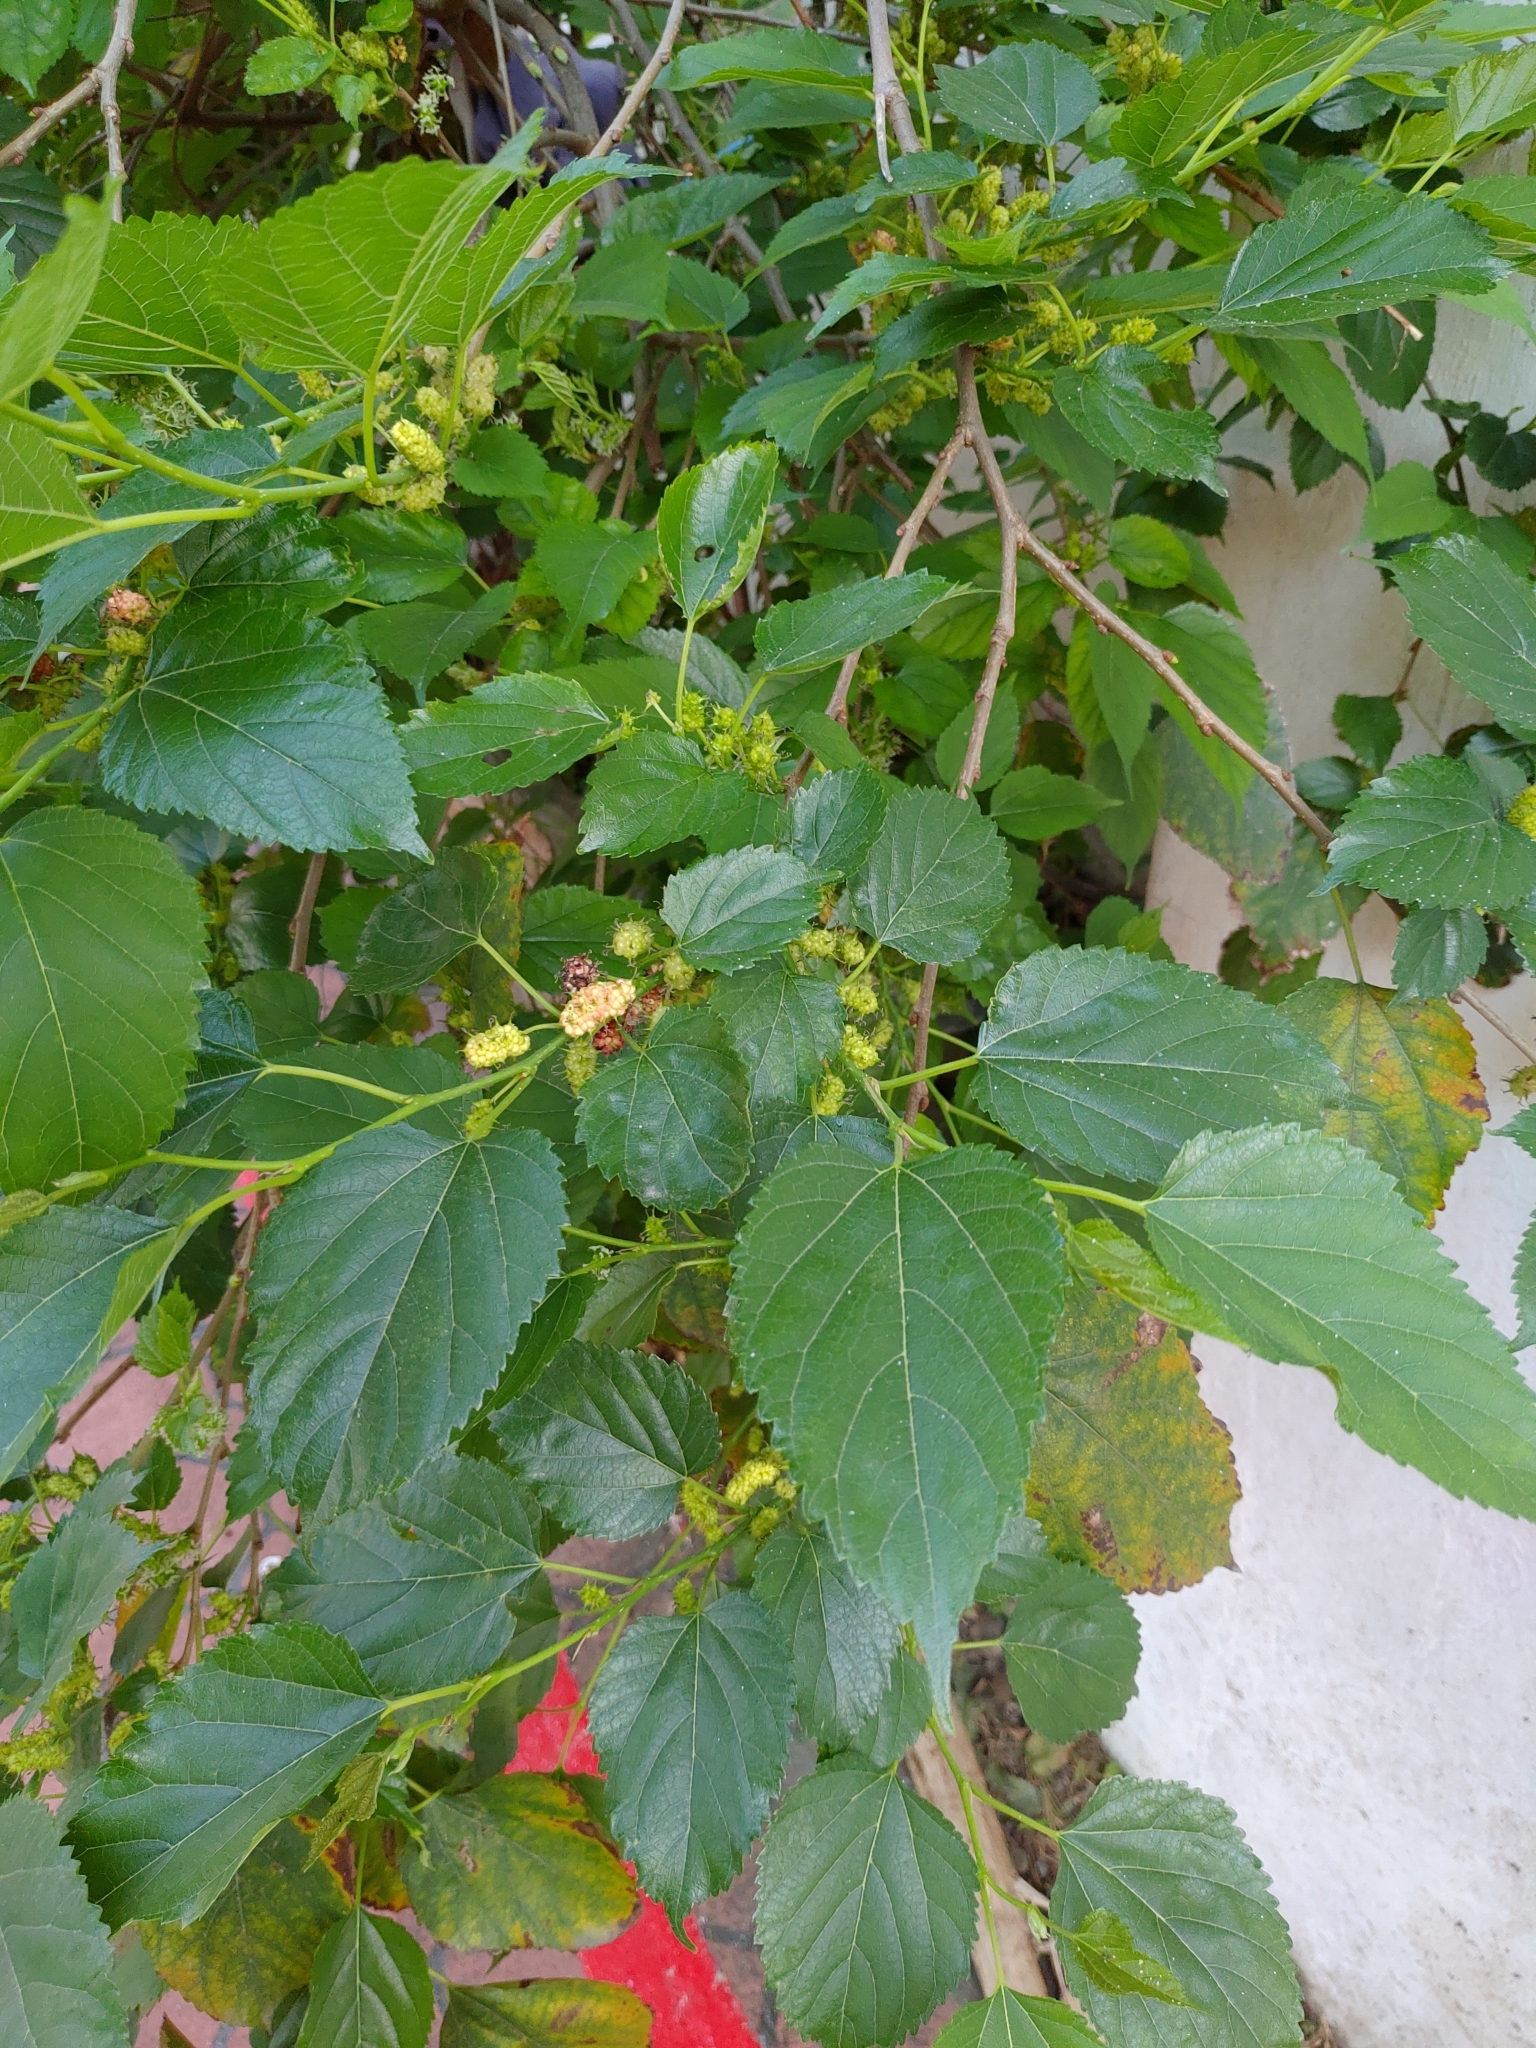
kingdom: Plantae
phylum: Tracheophyta
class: Magnoliopsida
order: Rosales
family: Moraceae
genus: Morus
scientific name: Morus indica
